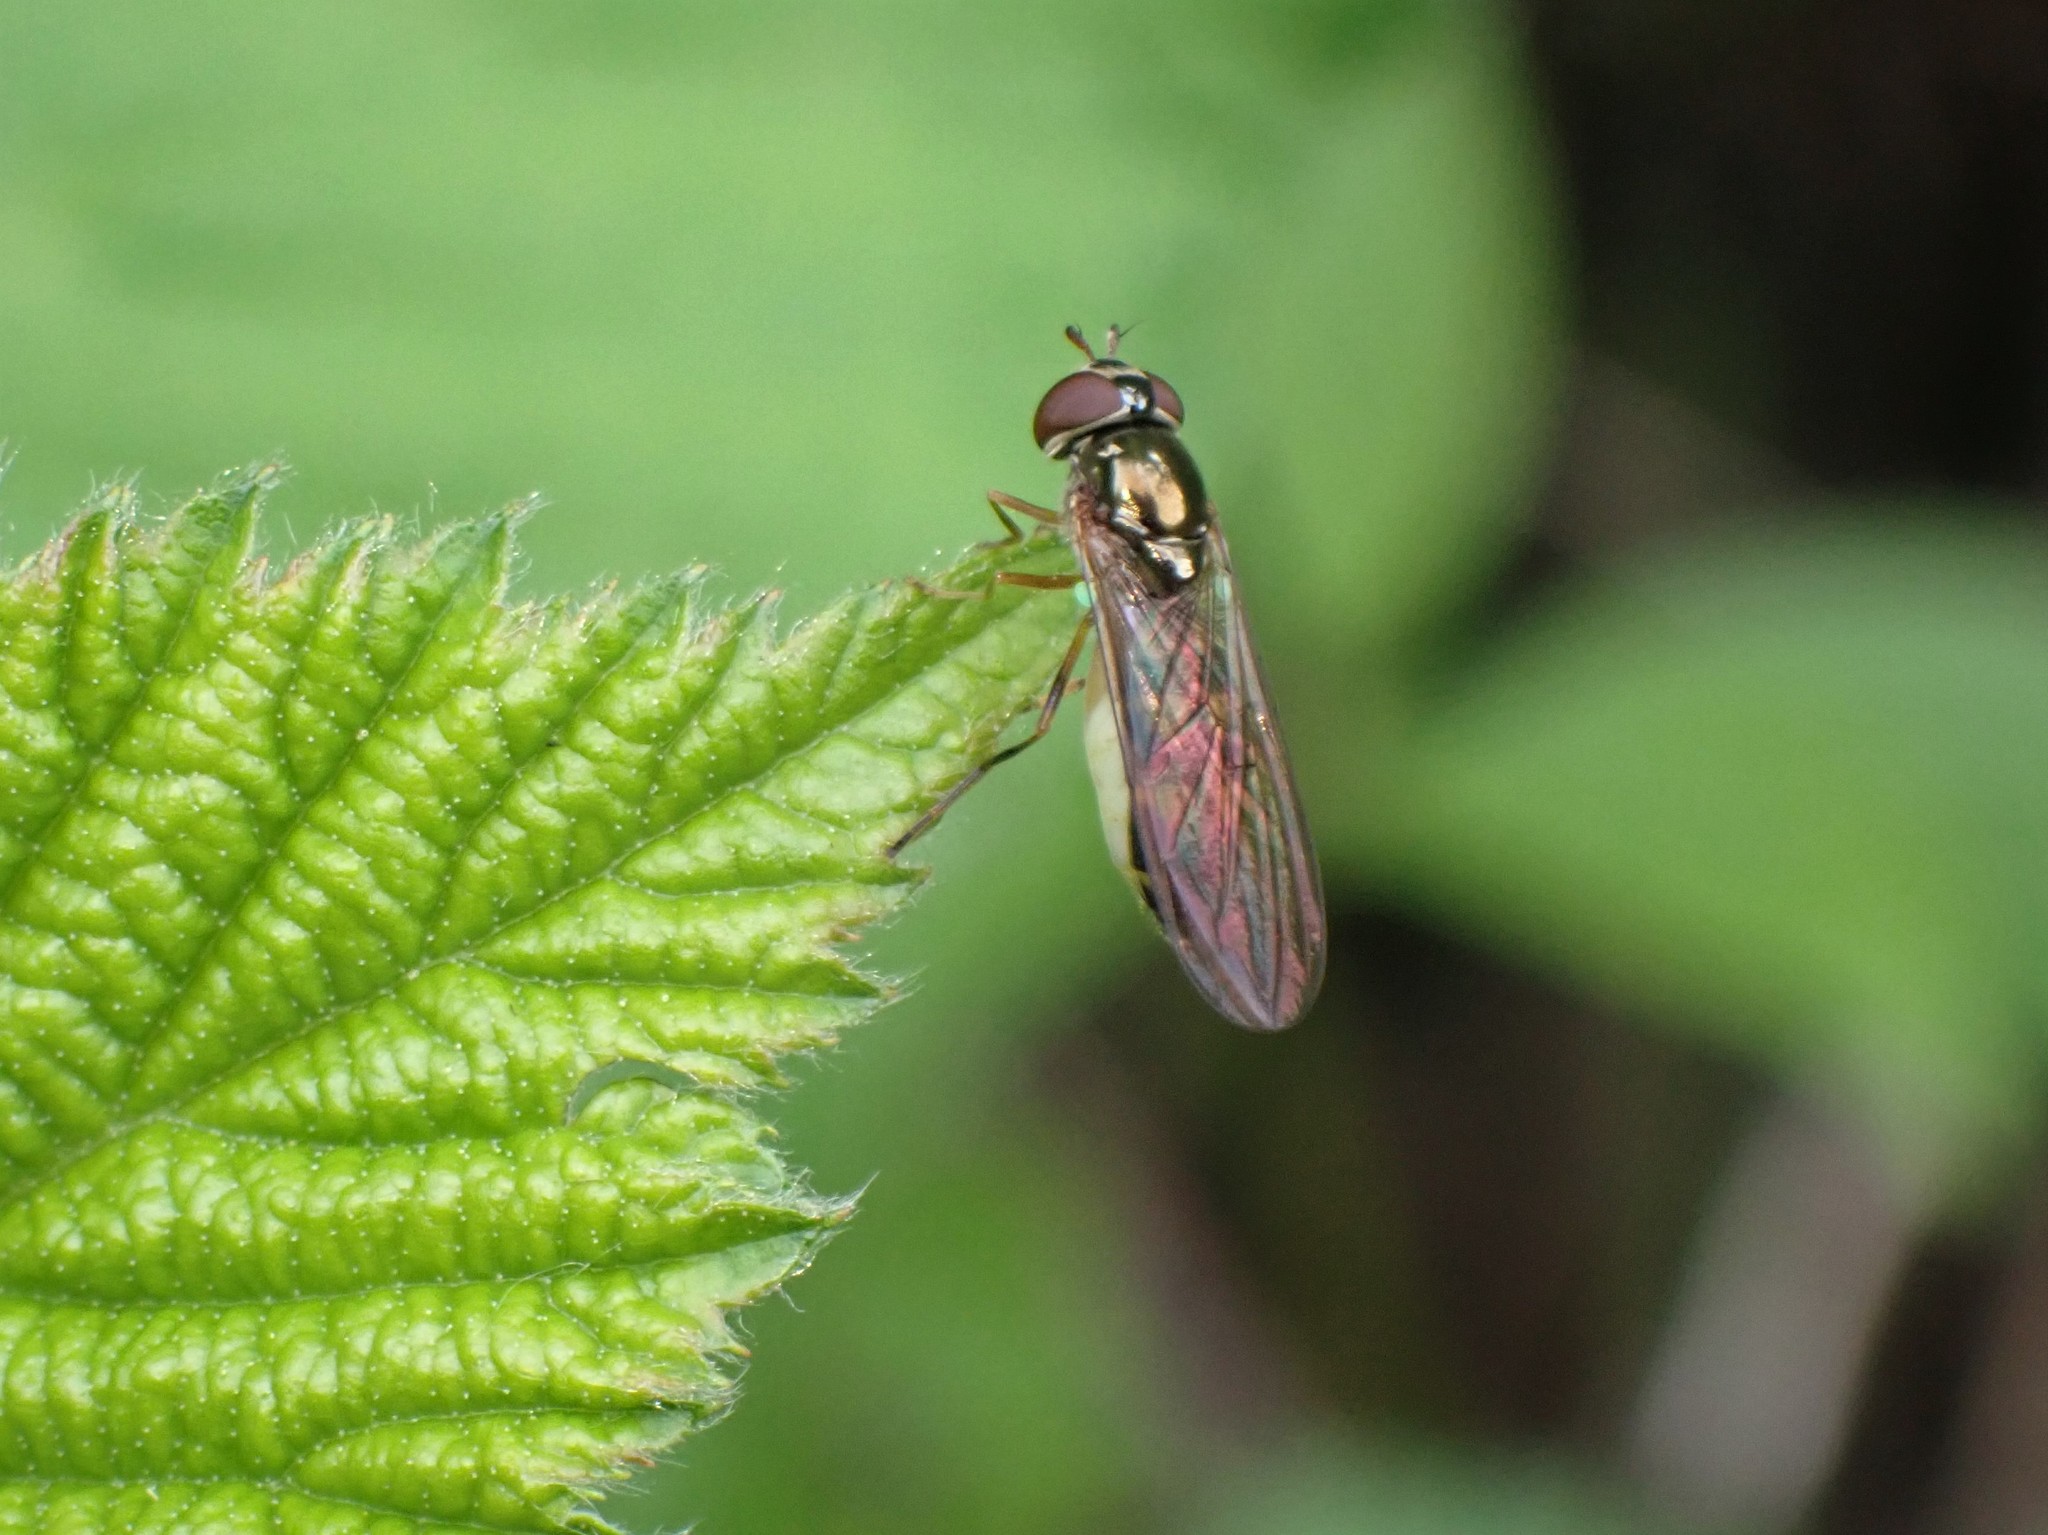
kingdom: Animalia
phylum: Arthropoda
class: Insecta
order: Diptera
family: Syrphidae
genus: Melanostoma
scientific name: Melanostoma mellina
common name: Hover fly
